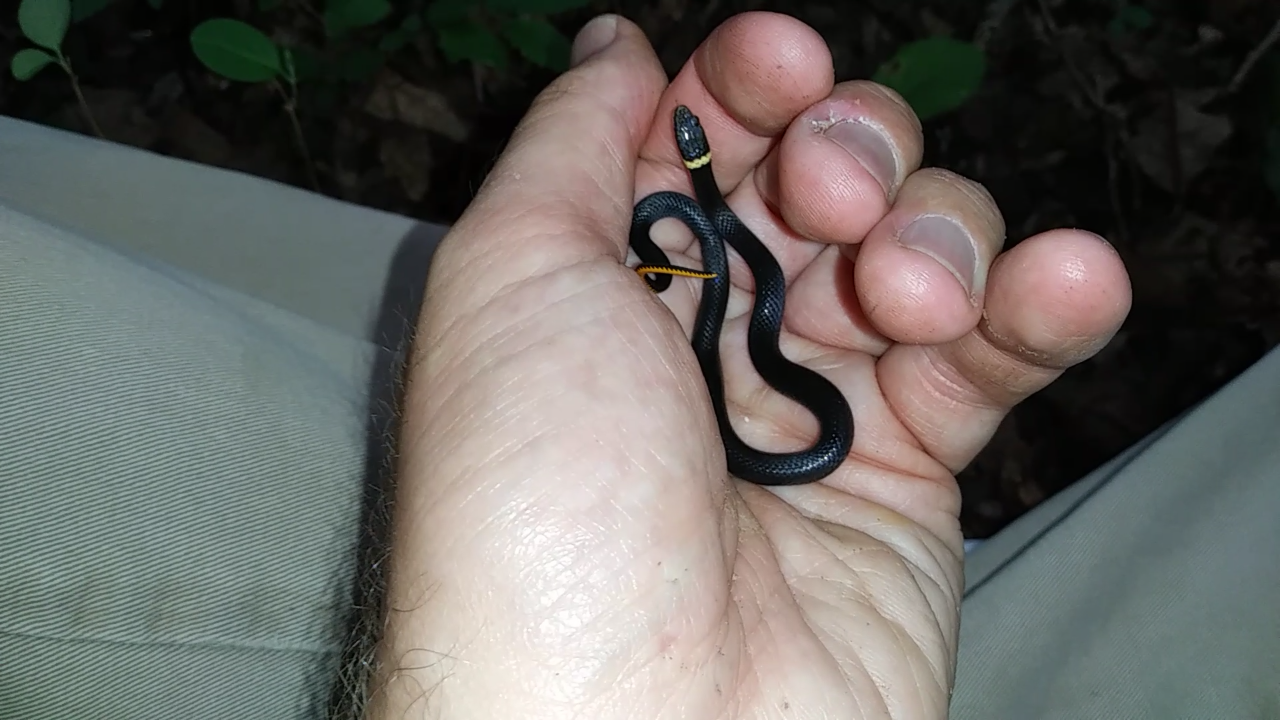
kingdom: Animalia
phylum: Chordata
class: Squamata
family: Colubridae
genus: Diadophis
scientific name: Diadophis punctatus
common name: Ringneck snake
